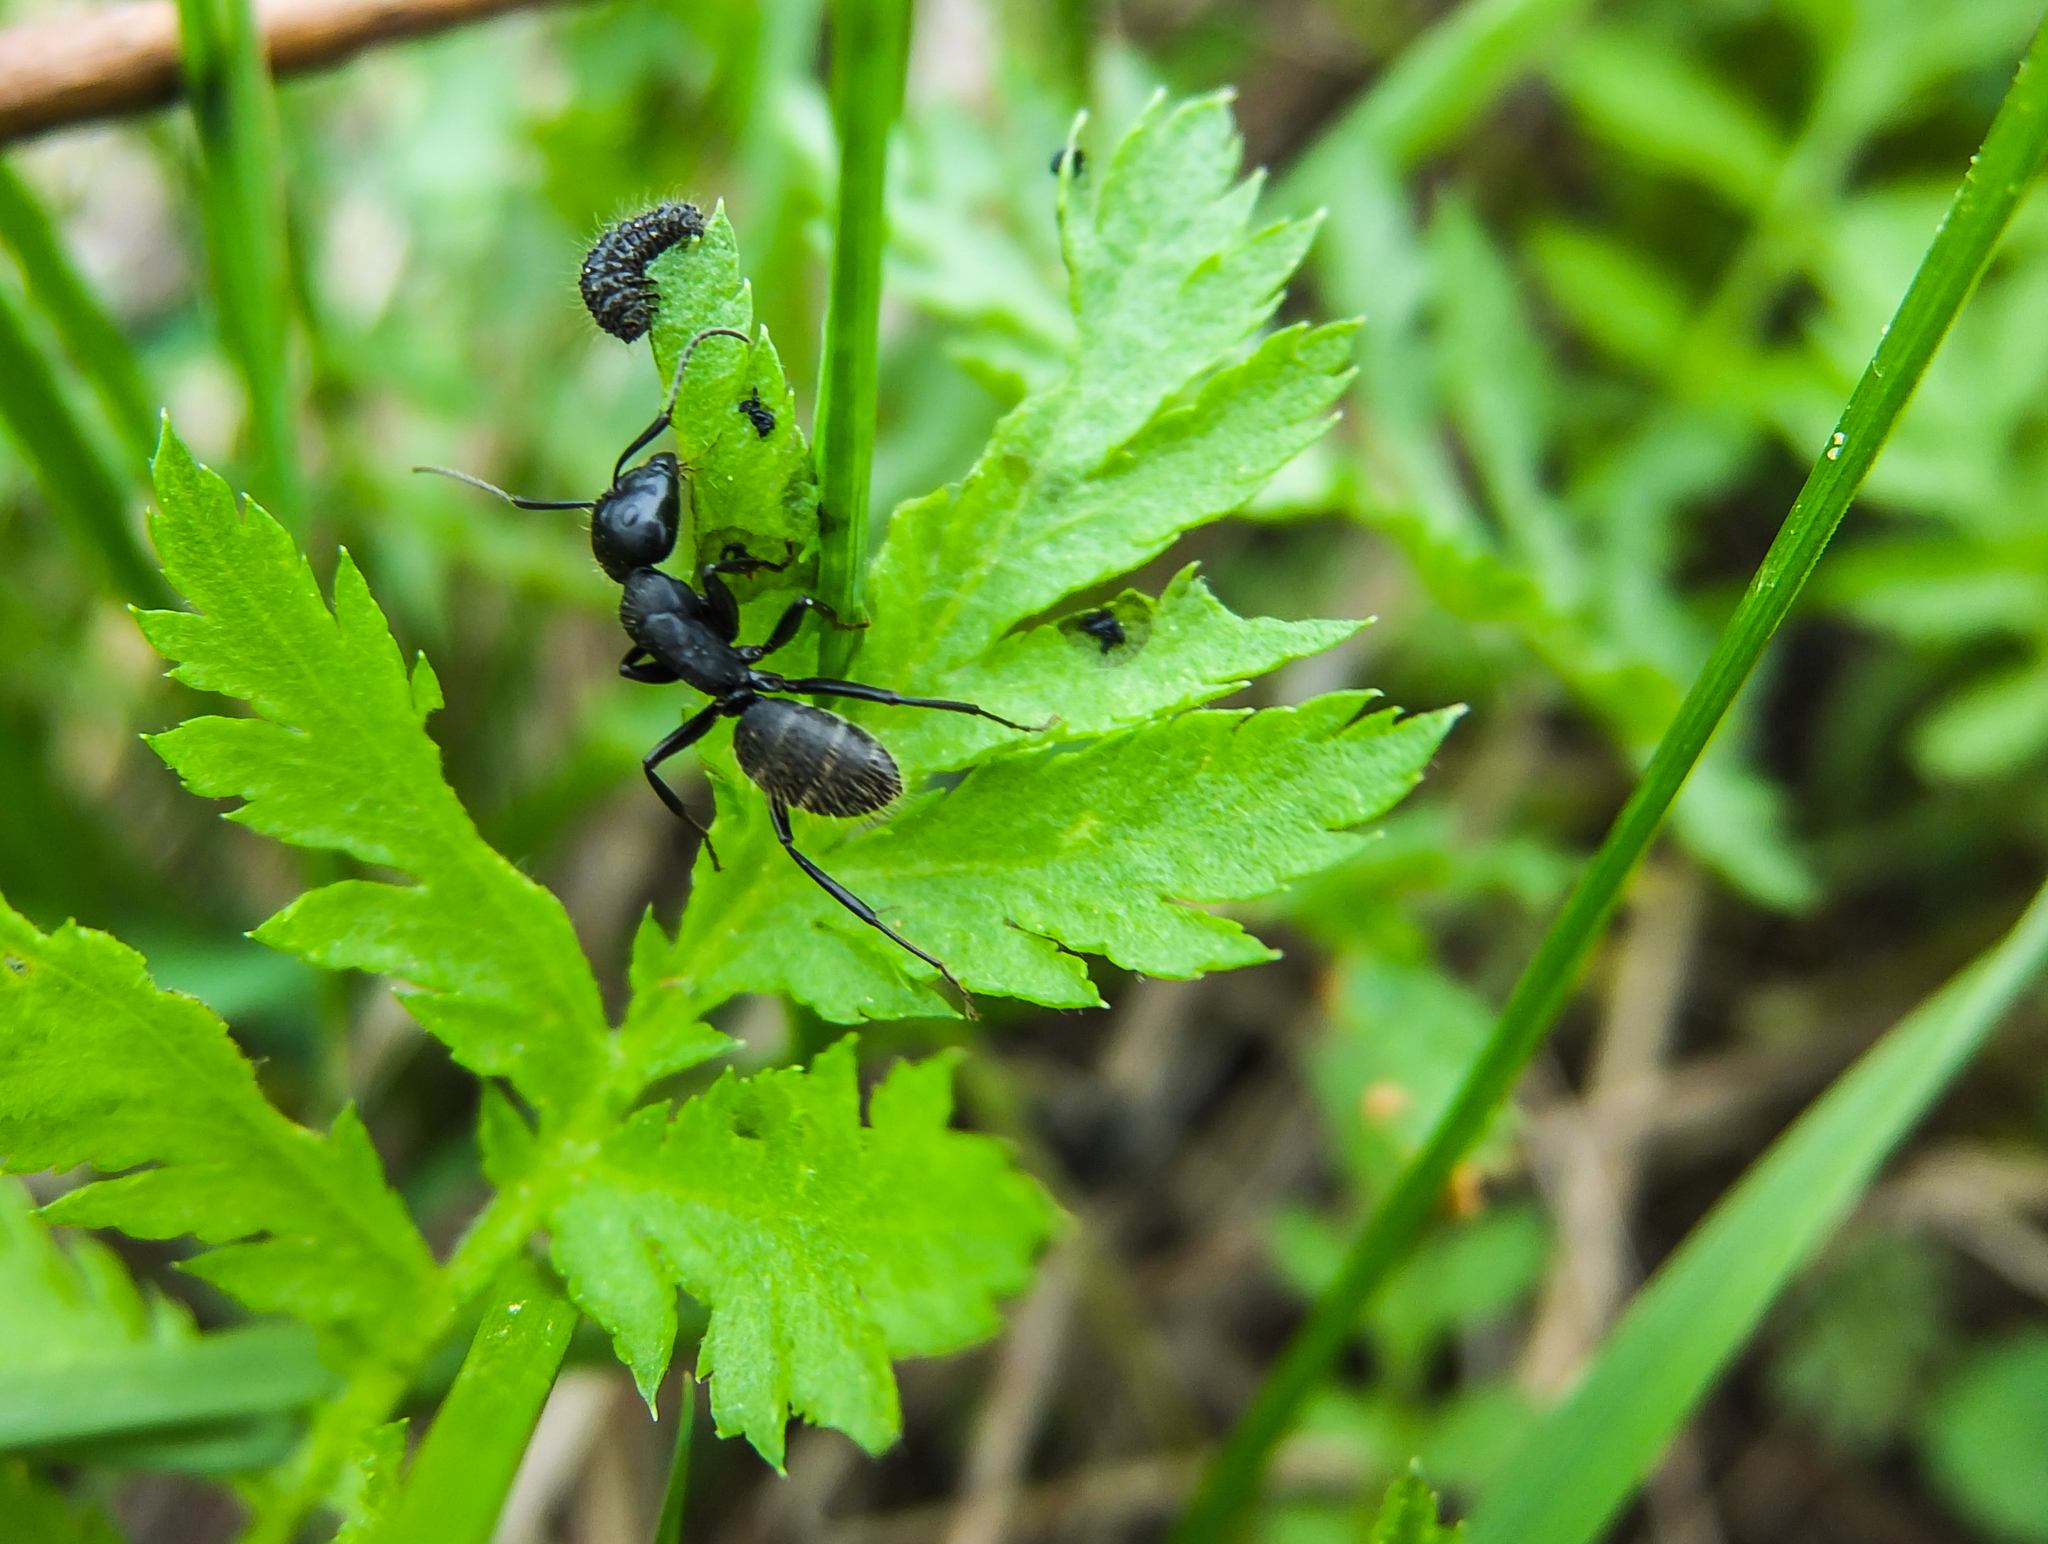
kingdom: Animalia
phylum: Arthropoda
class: Insecta
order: Hymenoptera
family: Formicidae
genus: Camponotus
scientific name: Camponotus vagus
